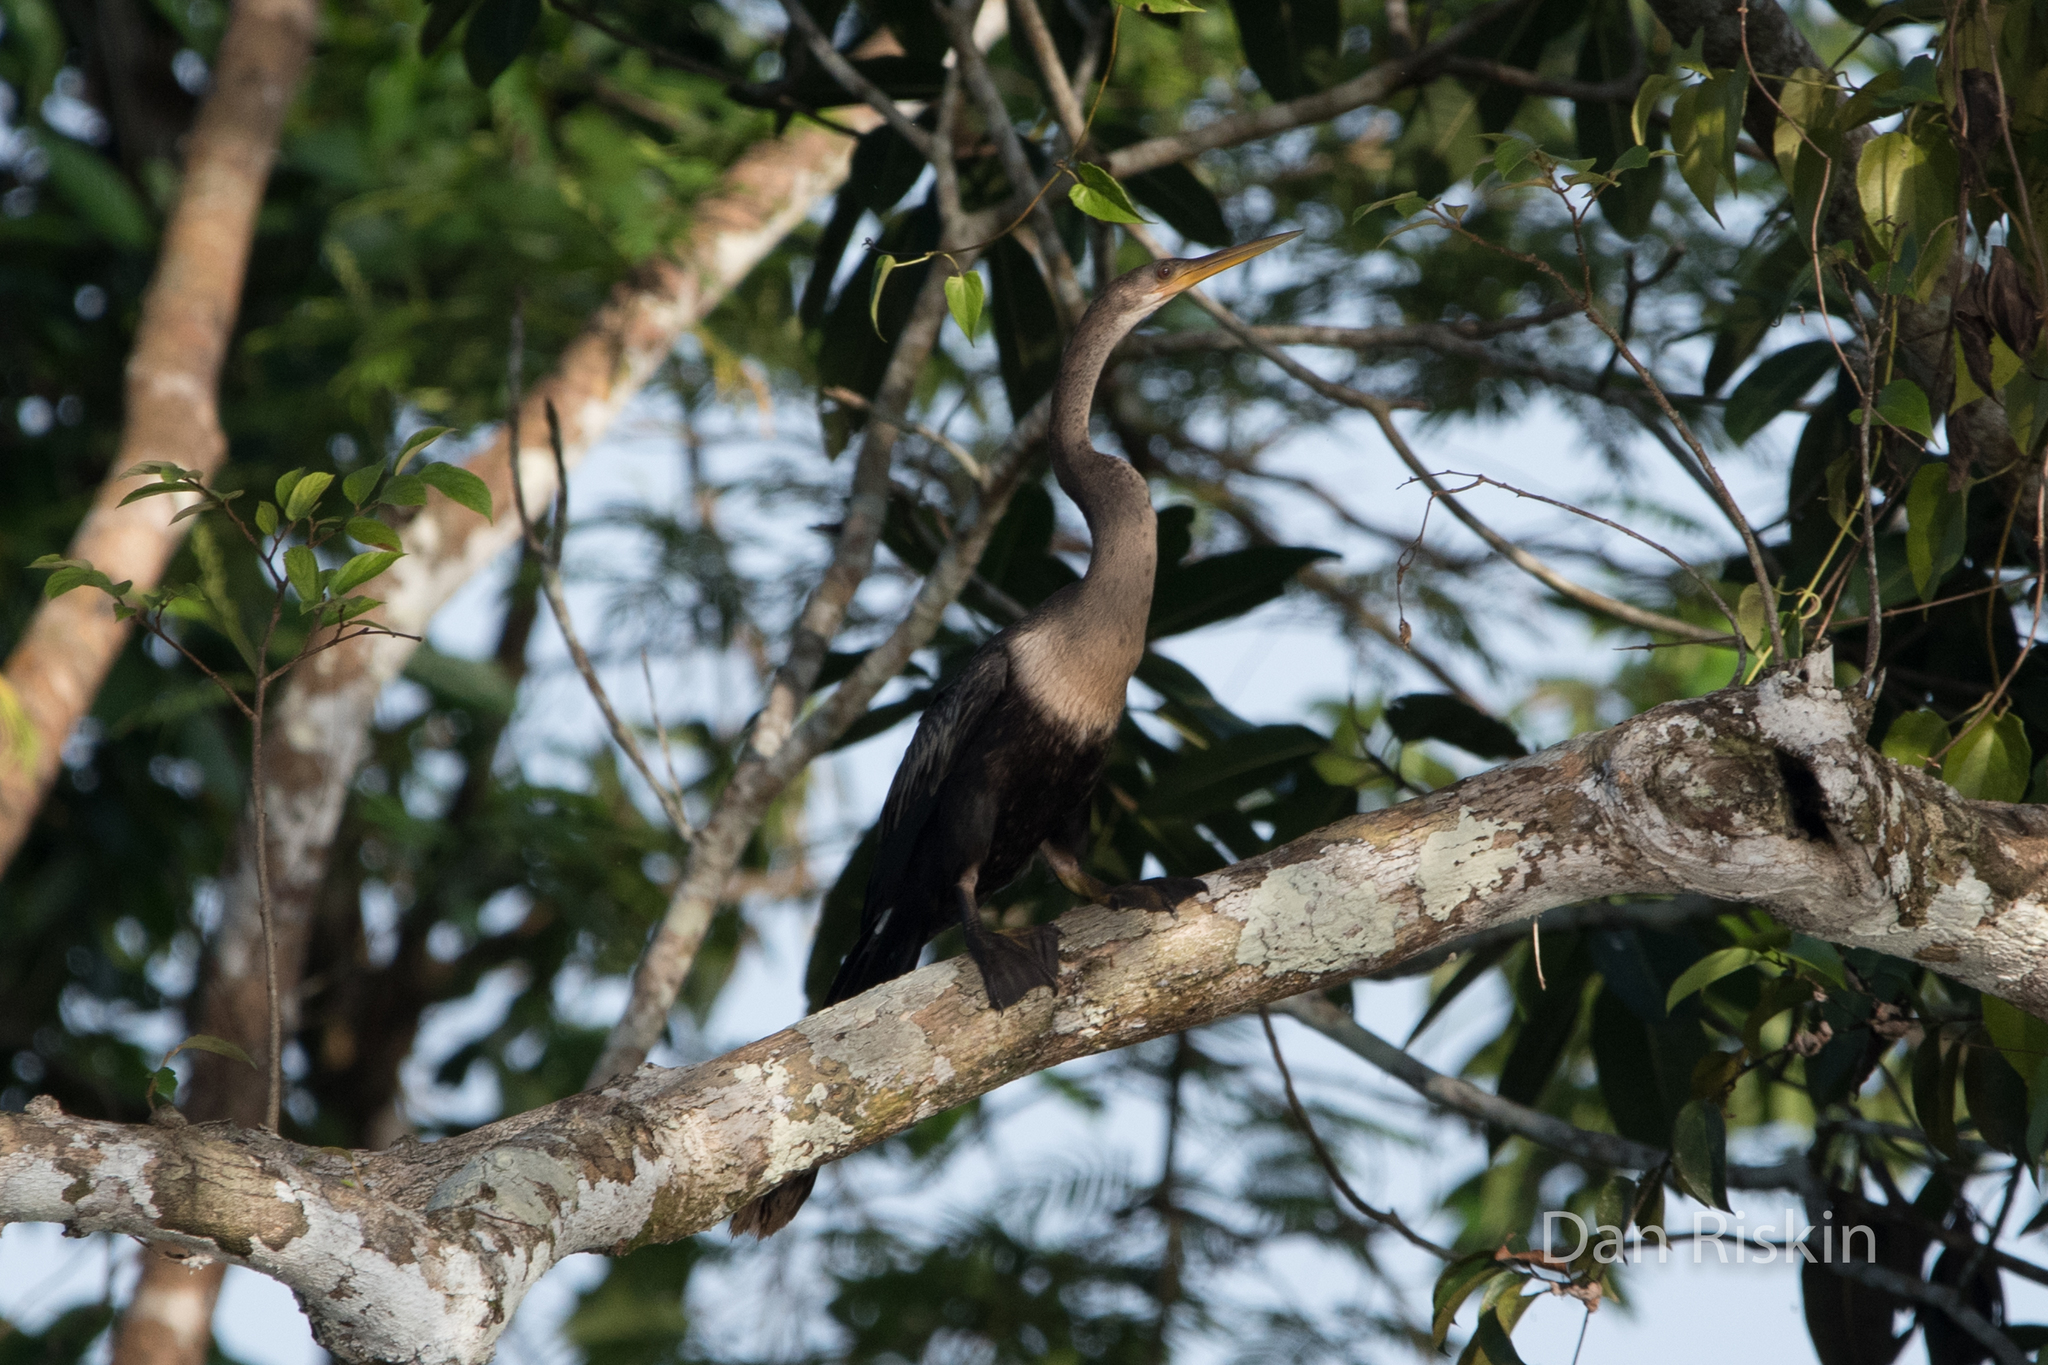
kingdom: Animalia
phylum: Chordata
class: Aves
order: Suliformes
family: Anhingidae
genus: Anhinga
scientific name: Anhinga anhinga
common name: Anhinga
